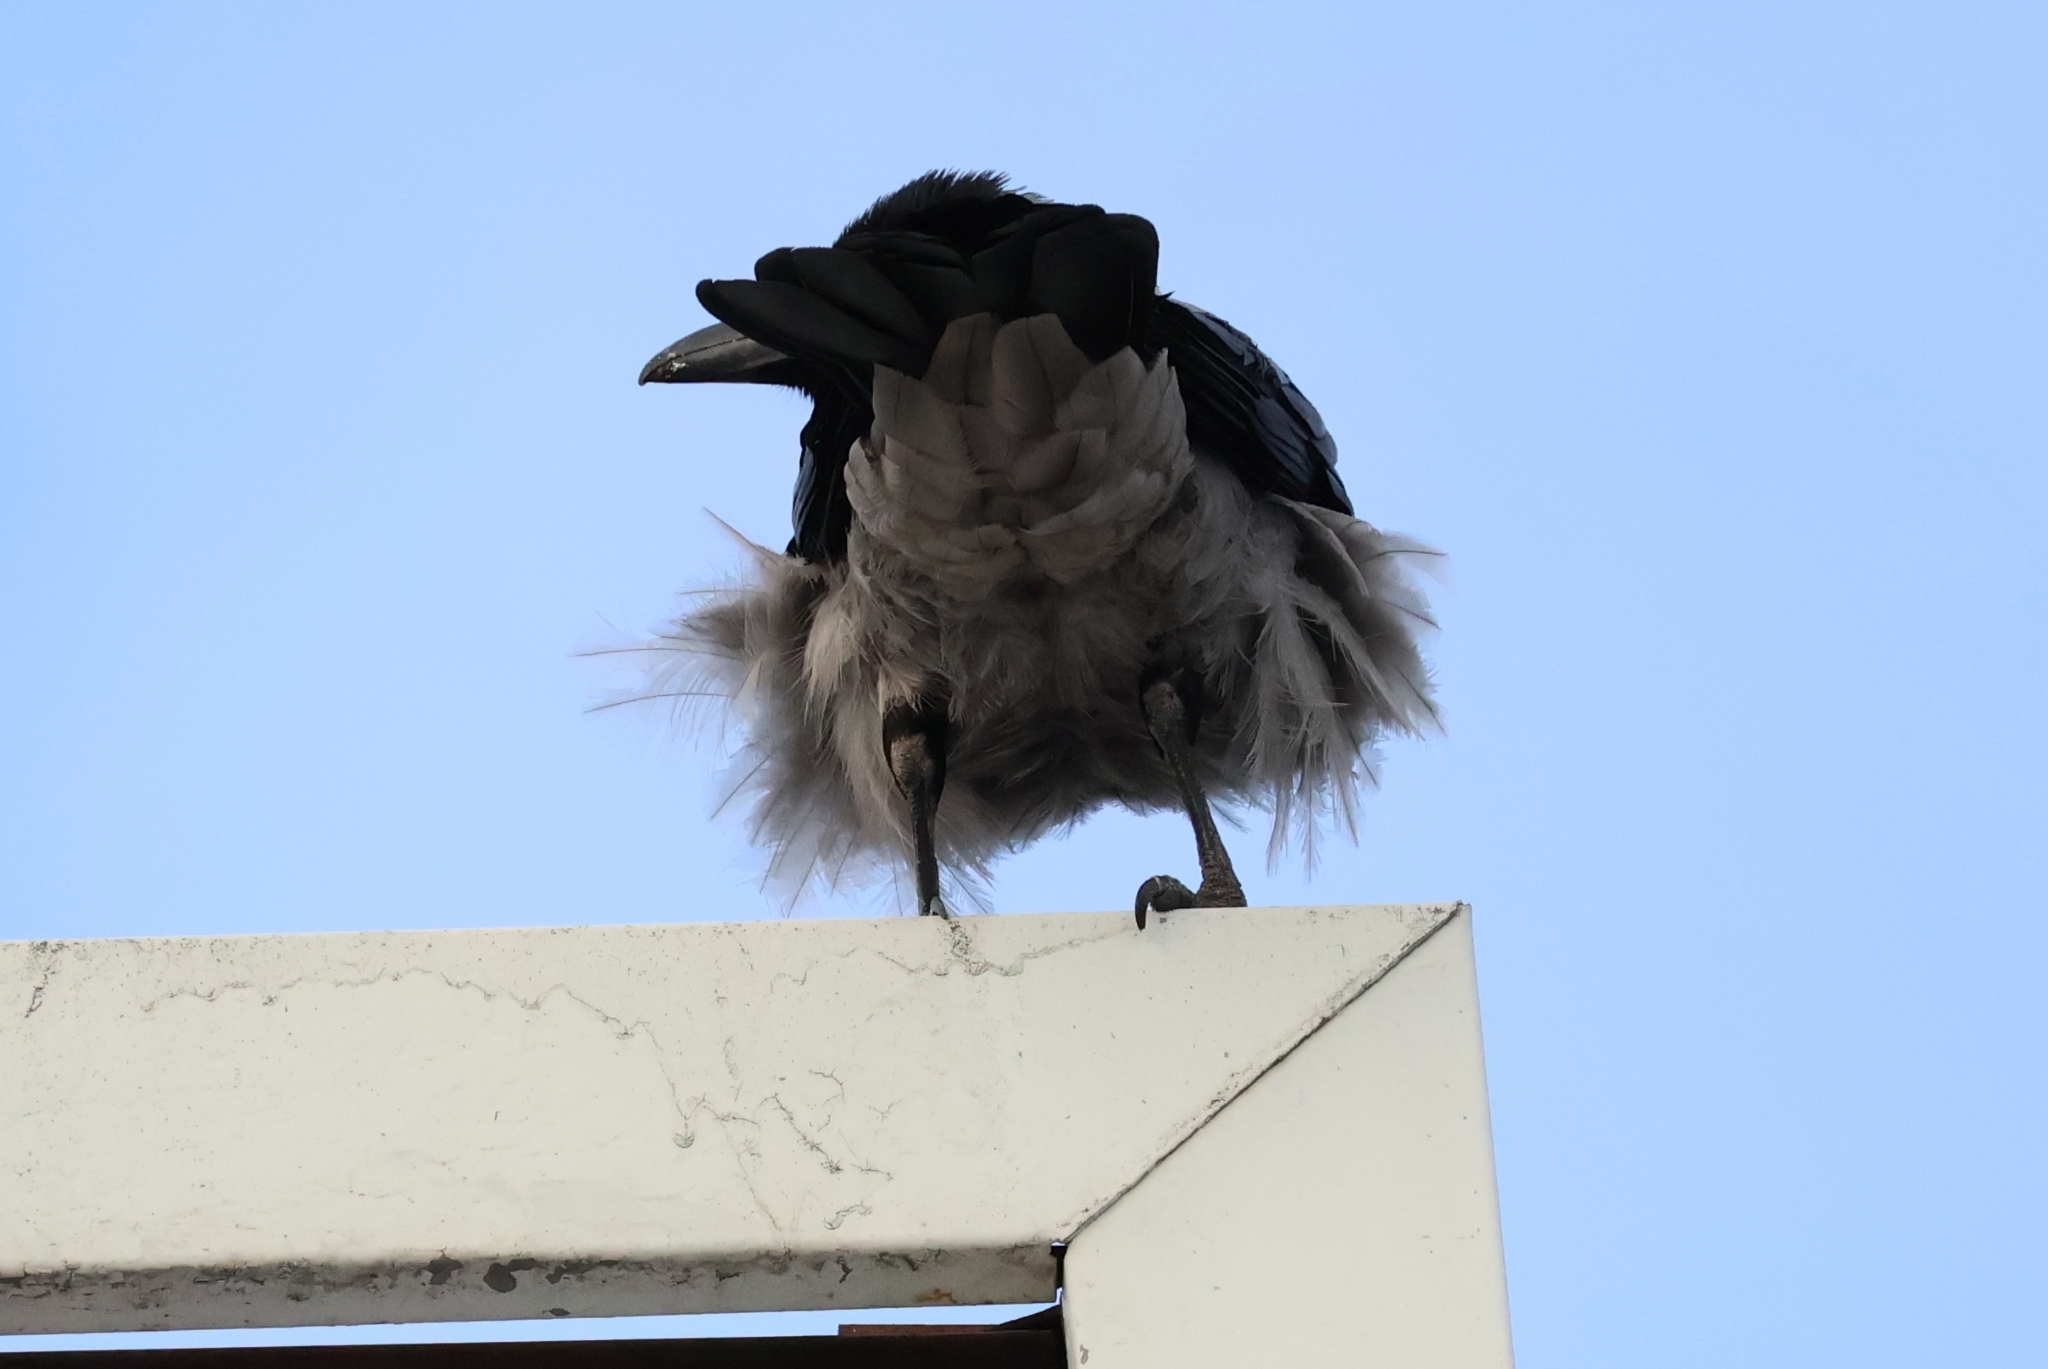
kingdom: Animalia
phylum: Chordata
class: Aves
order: Passeriformes
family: Corvidae
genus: Corvus
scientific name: Corvus cornix
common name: Hooded crow
